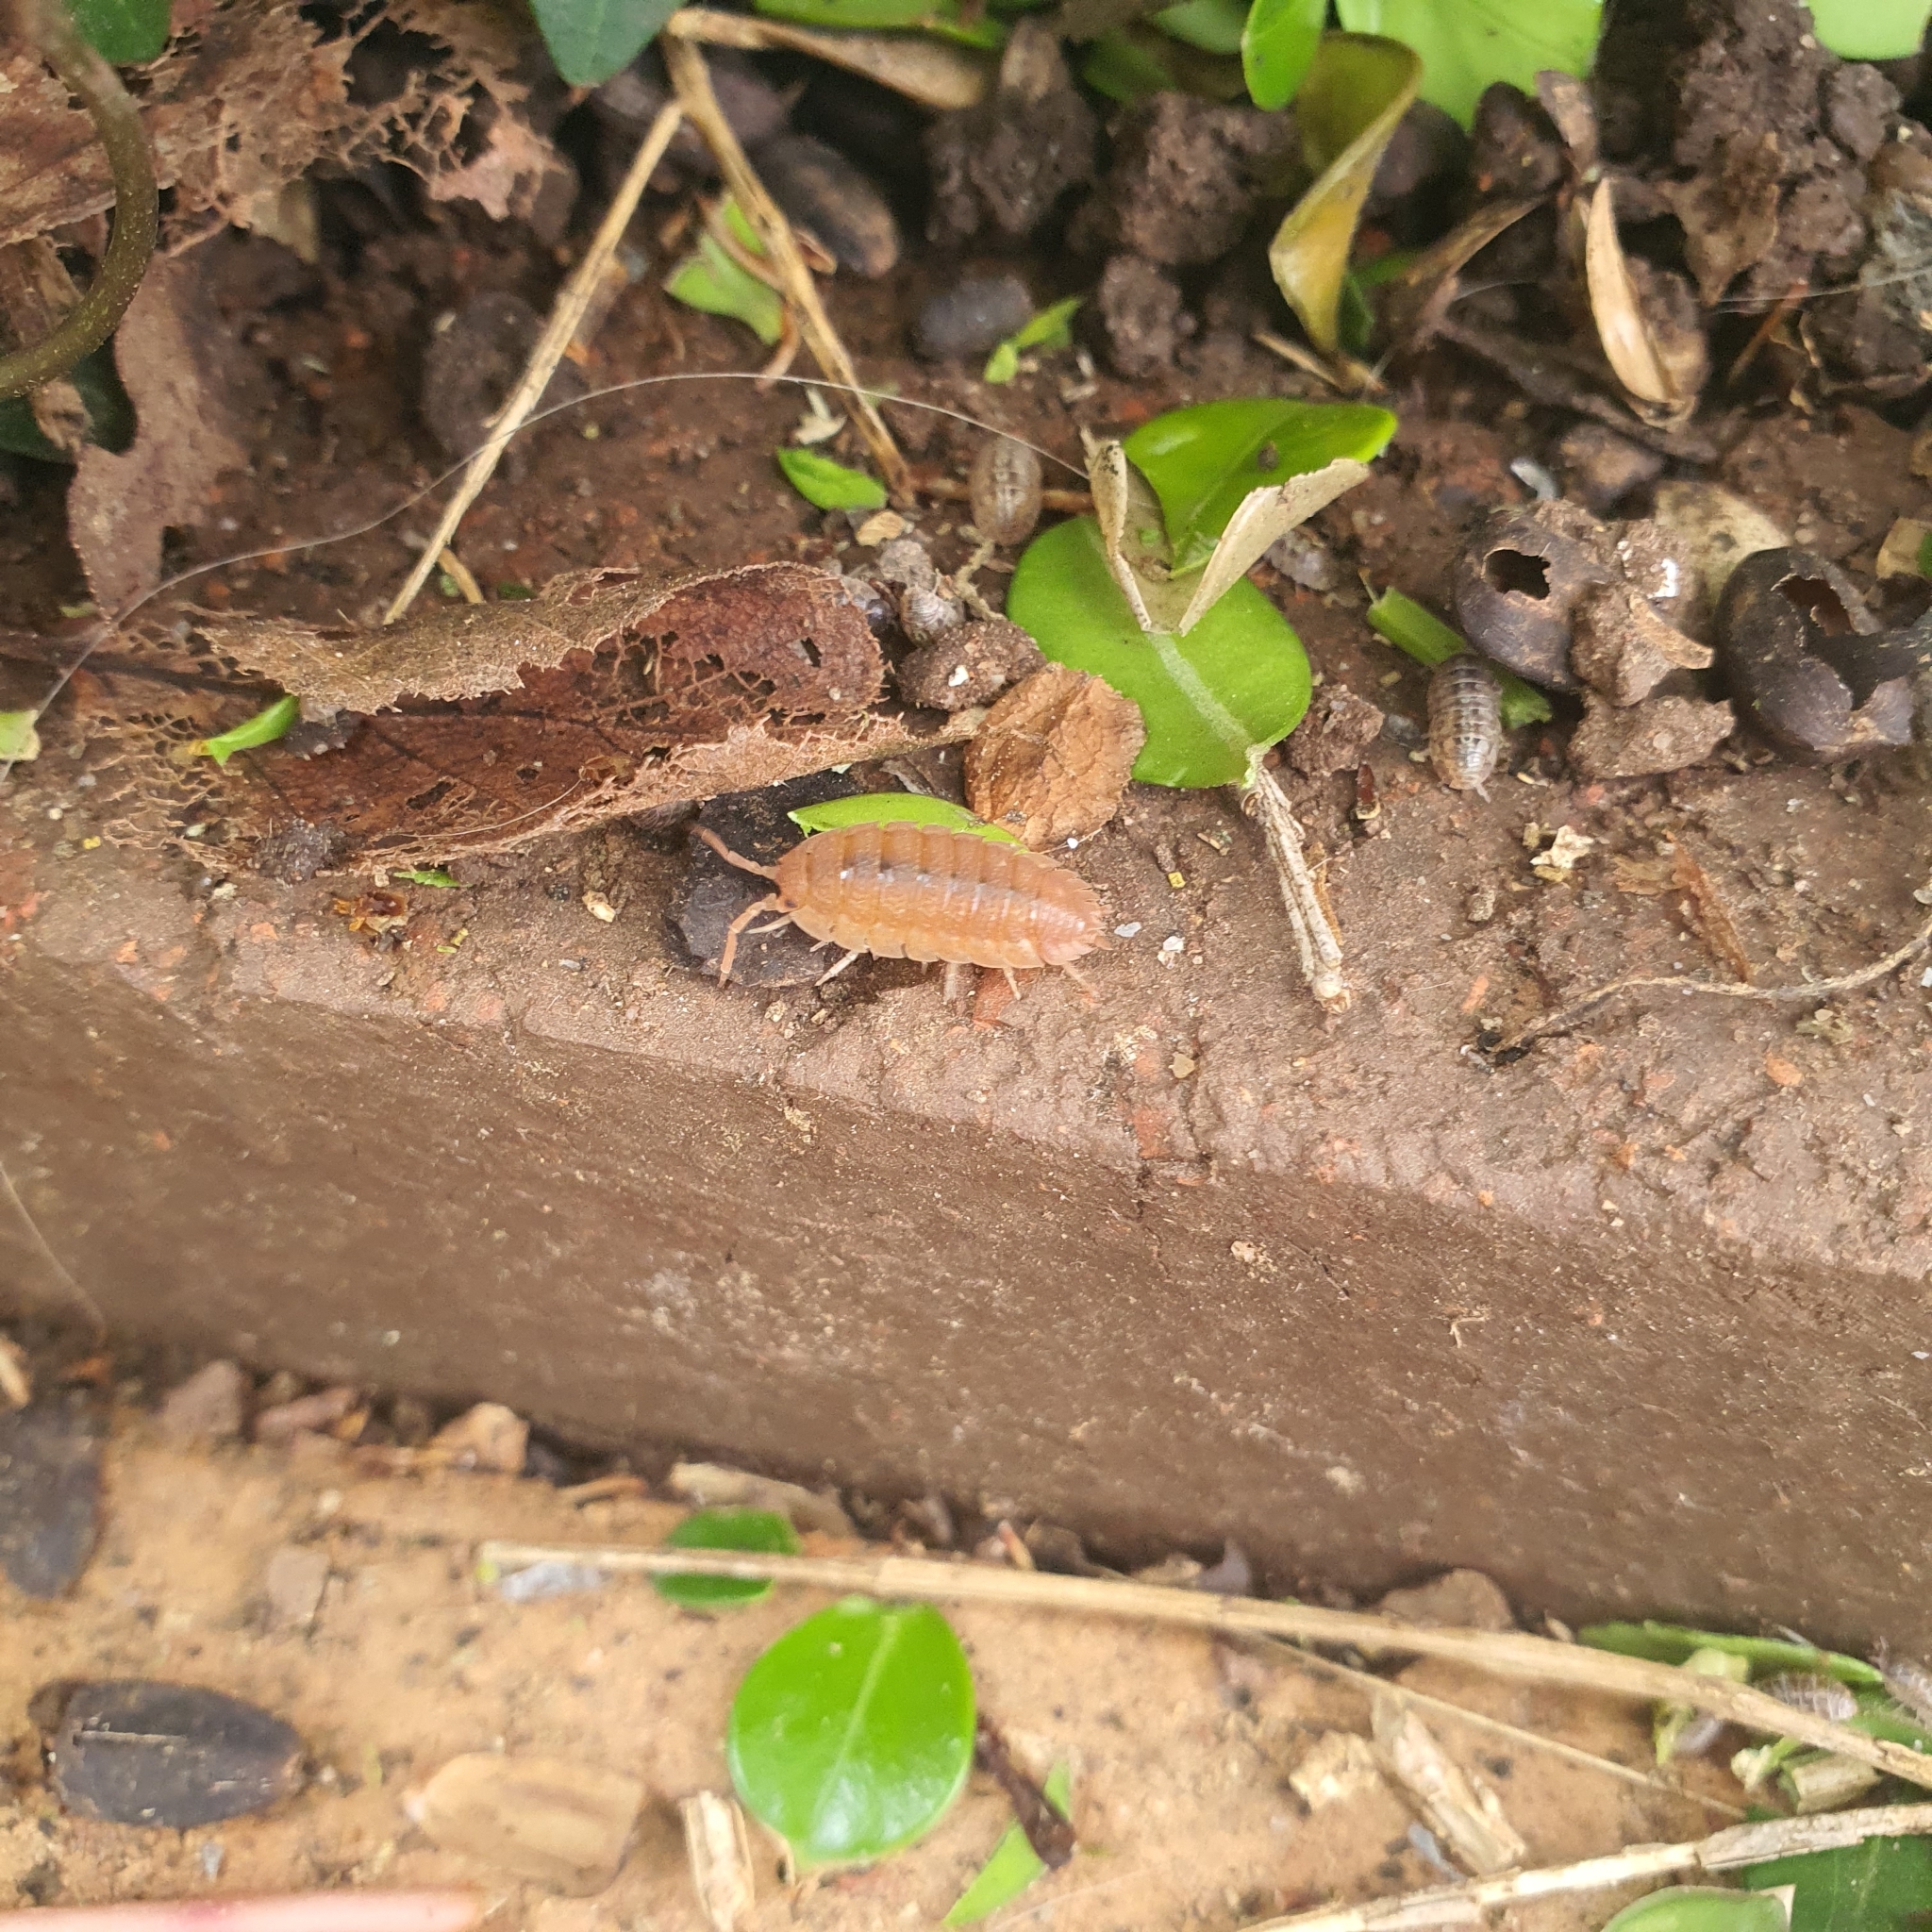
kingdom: Animalia
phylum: Arthropoda
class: Malacostraca
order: Isopoda
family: Porcellionidae
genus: Porcellio
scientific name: Porcellio scaber
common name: Common rough woodlouse
